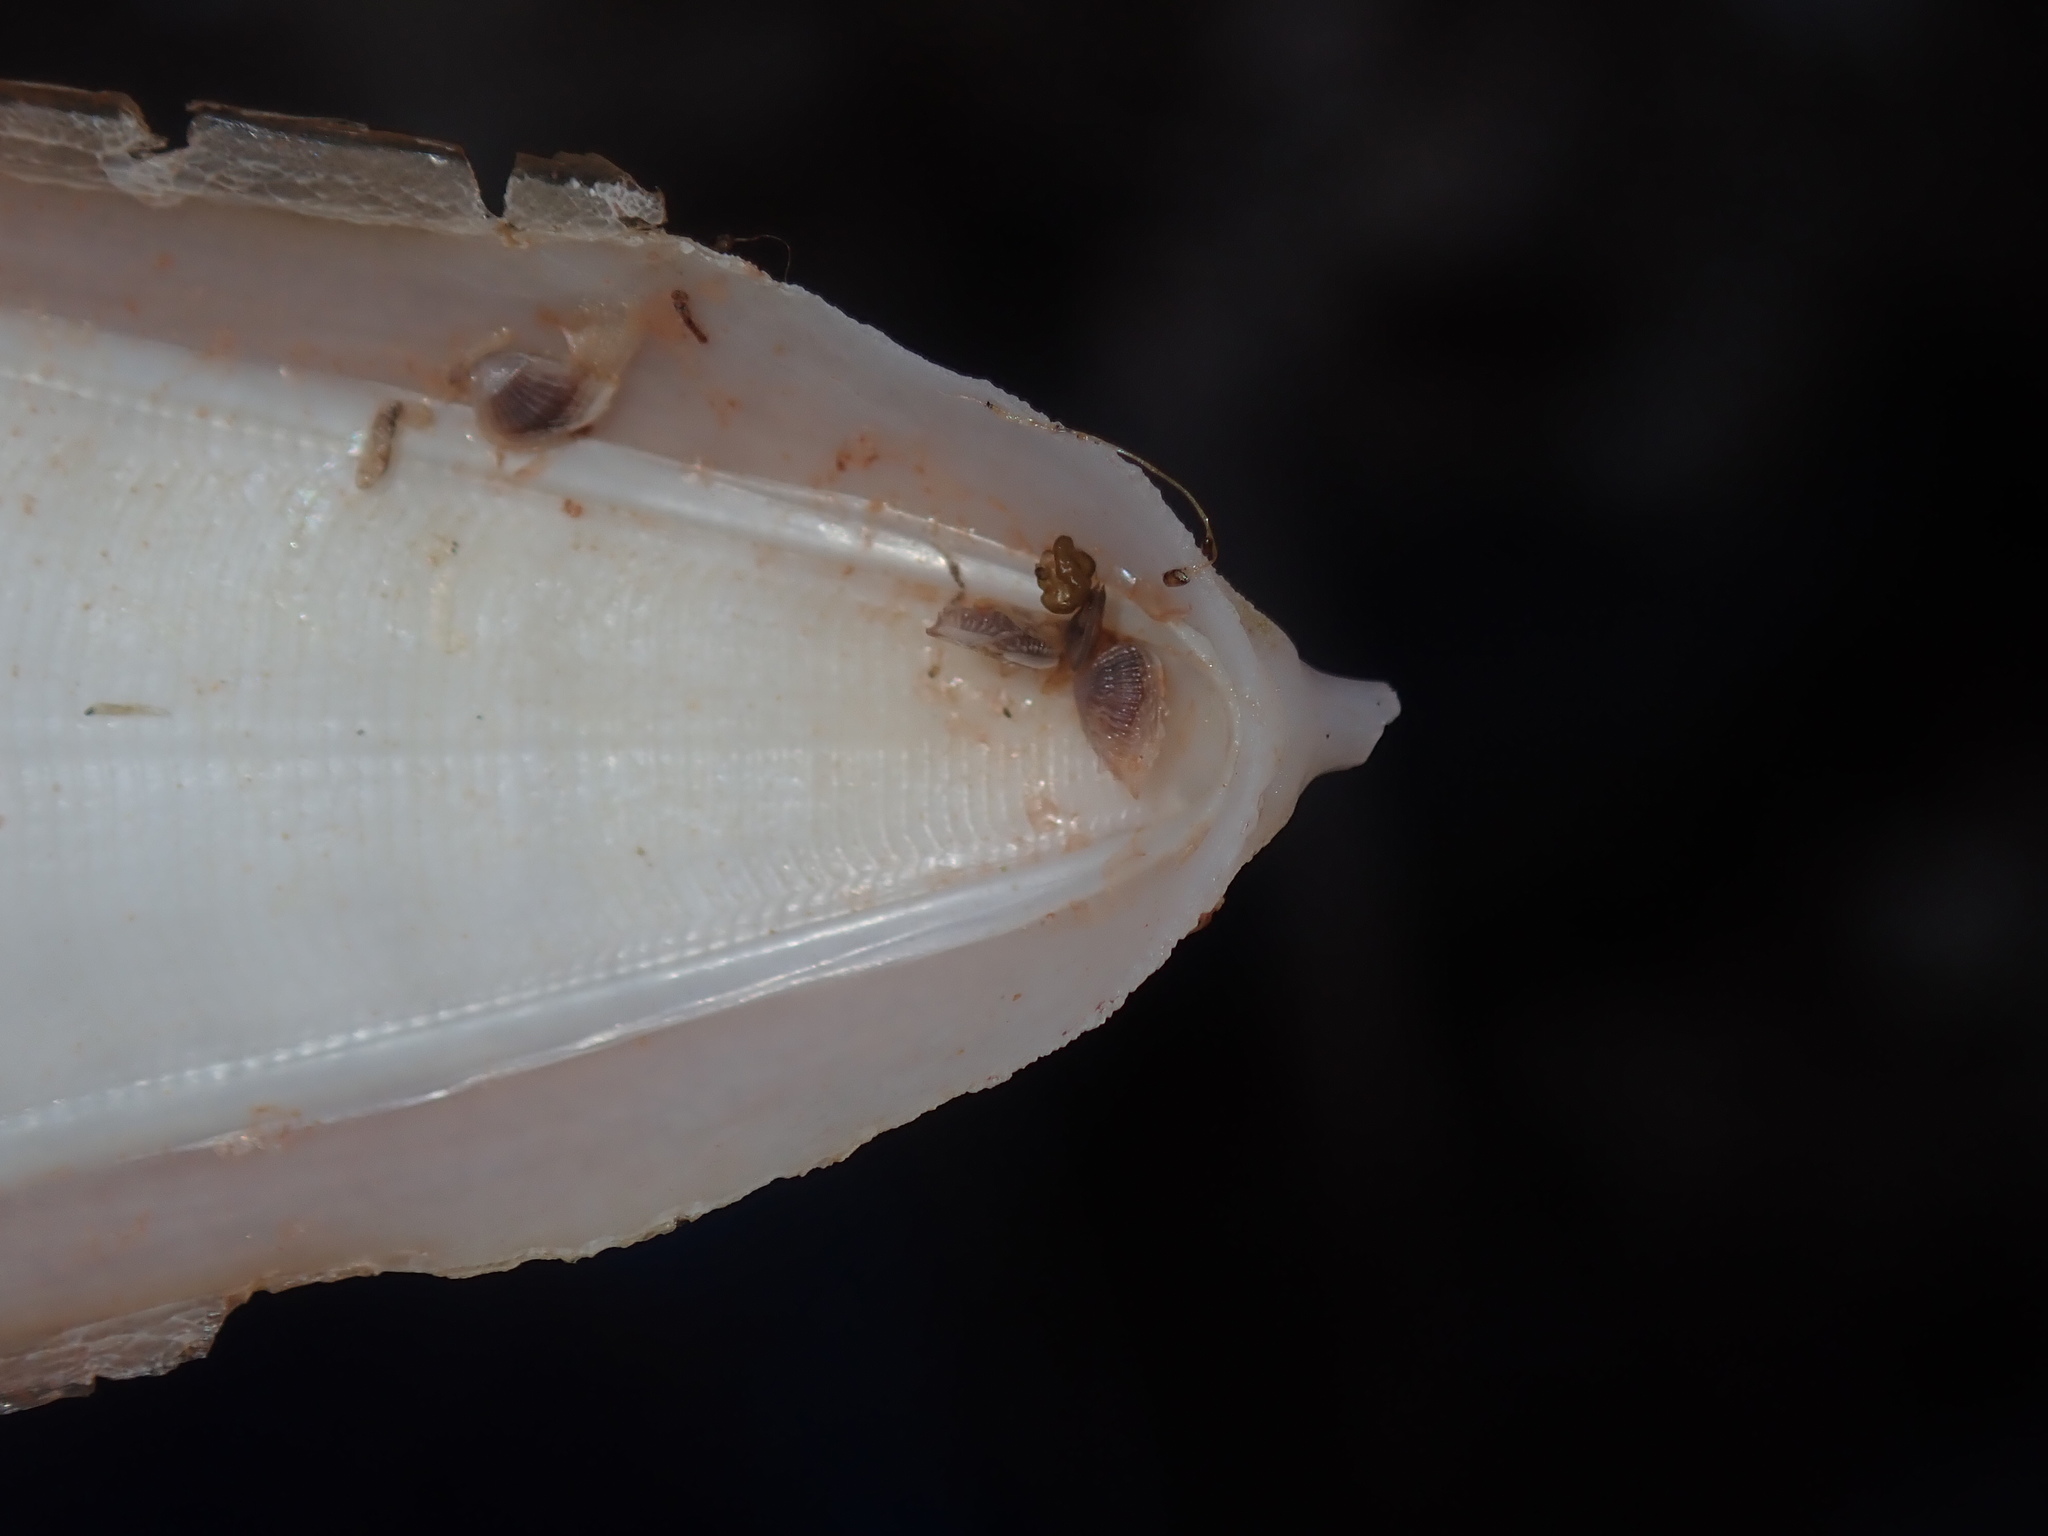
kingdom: Animalia
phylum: Arthropoda
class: Maxillopoda
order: Pedunculata
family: Lepadidae
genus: Lepas
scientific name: Lepas pectinata
